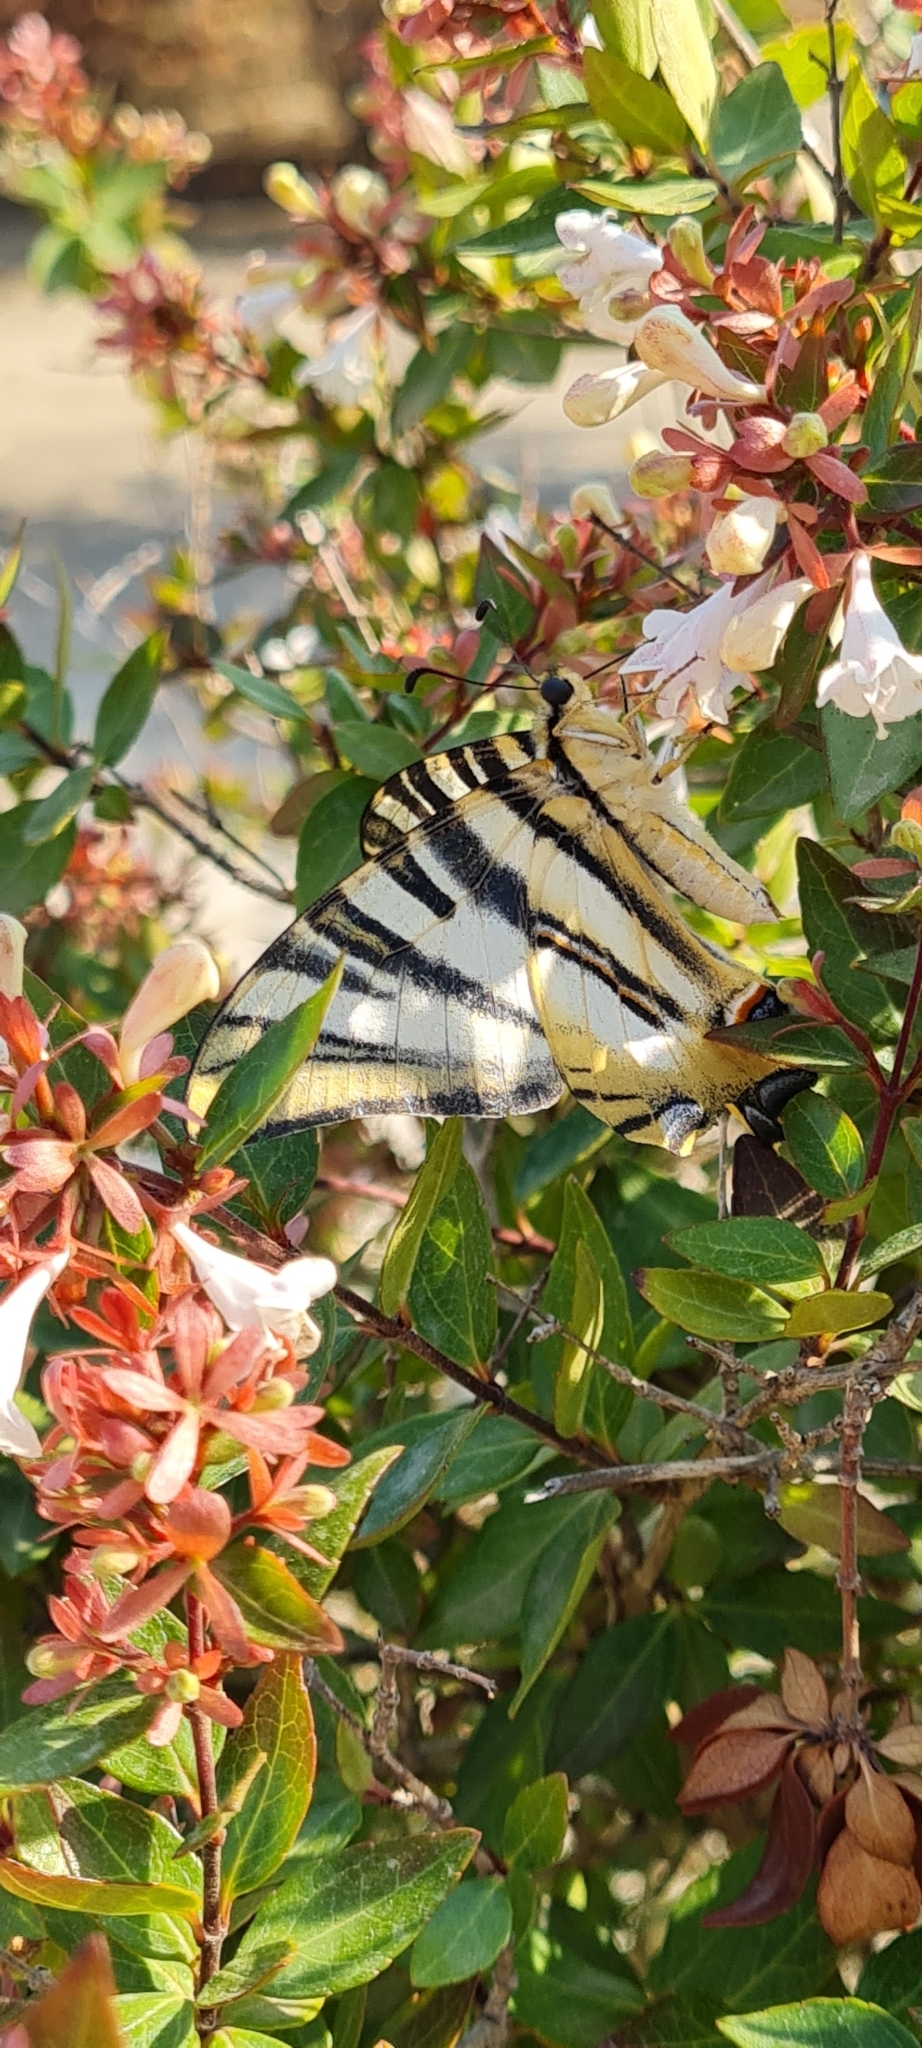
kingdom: Animalia
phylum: Arthropoda
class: Insecta
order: Lepidoptera
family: Papilionidae
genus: Iphiclides
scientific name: Iphiclides feisthamelii
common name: Iberian scarce swallowtail
